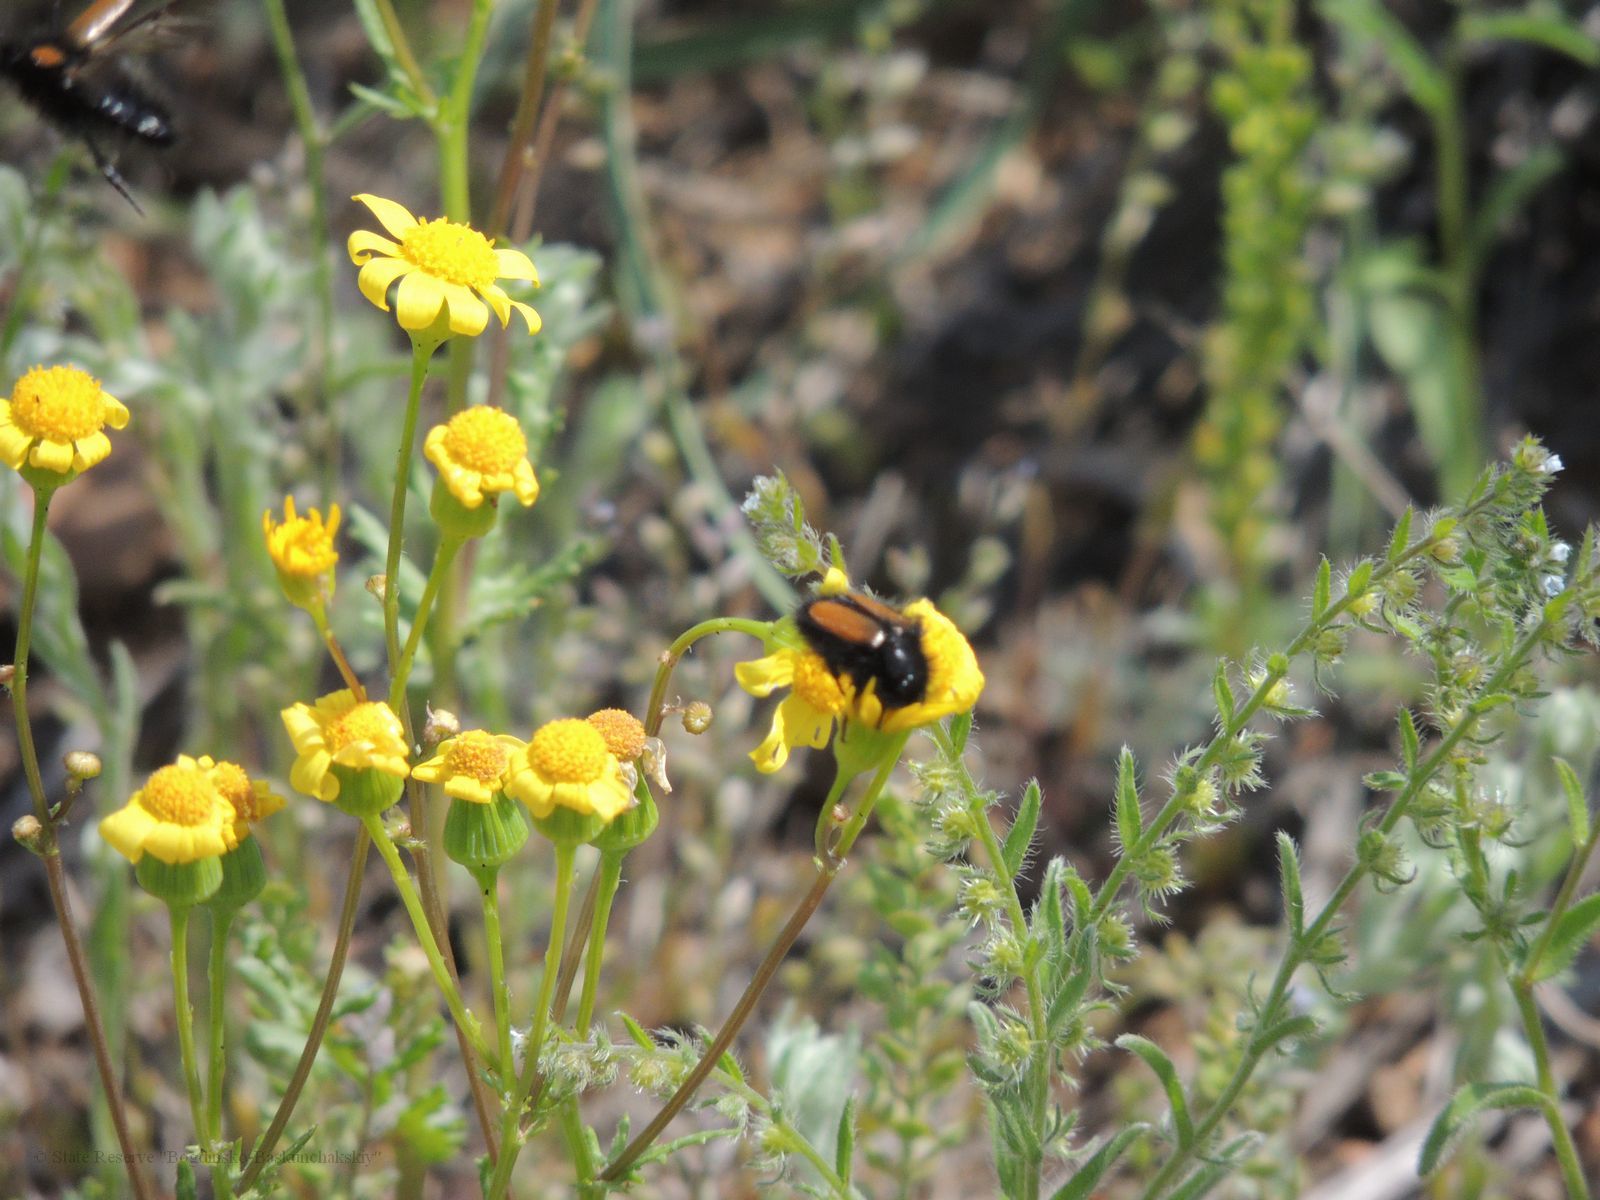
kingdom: Animalia
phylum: Arthropoda
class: Insecta
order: Coleoptera
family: Glaphyridae
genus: Eulasia
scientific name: Eulasia bombyliformis
